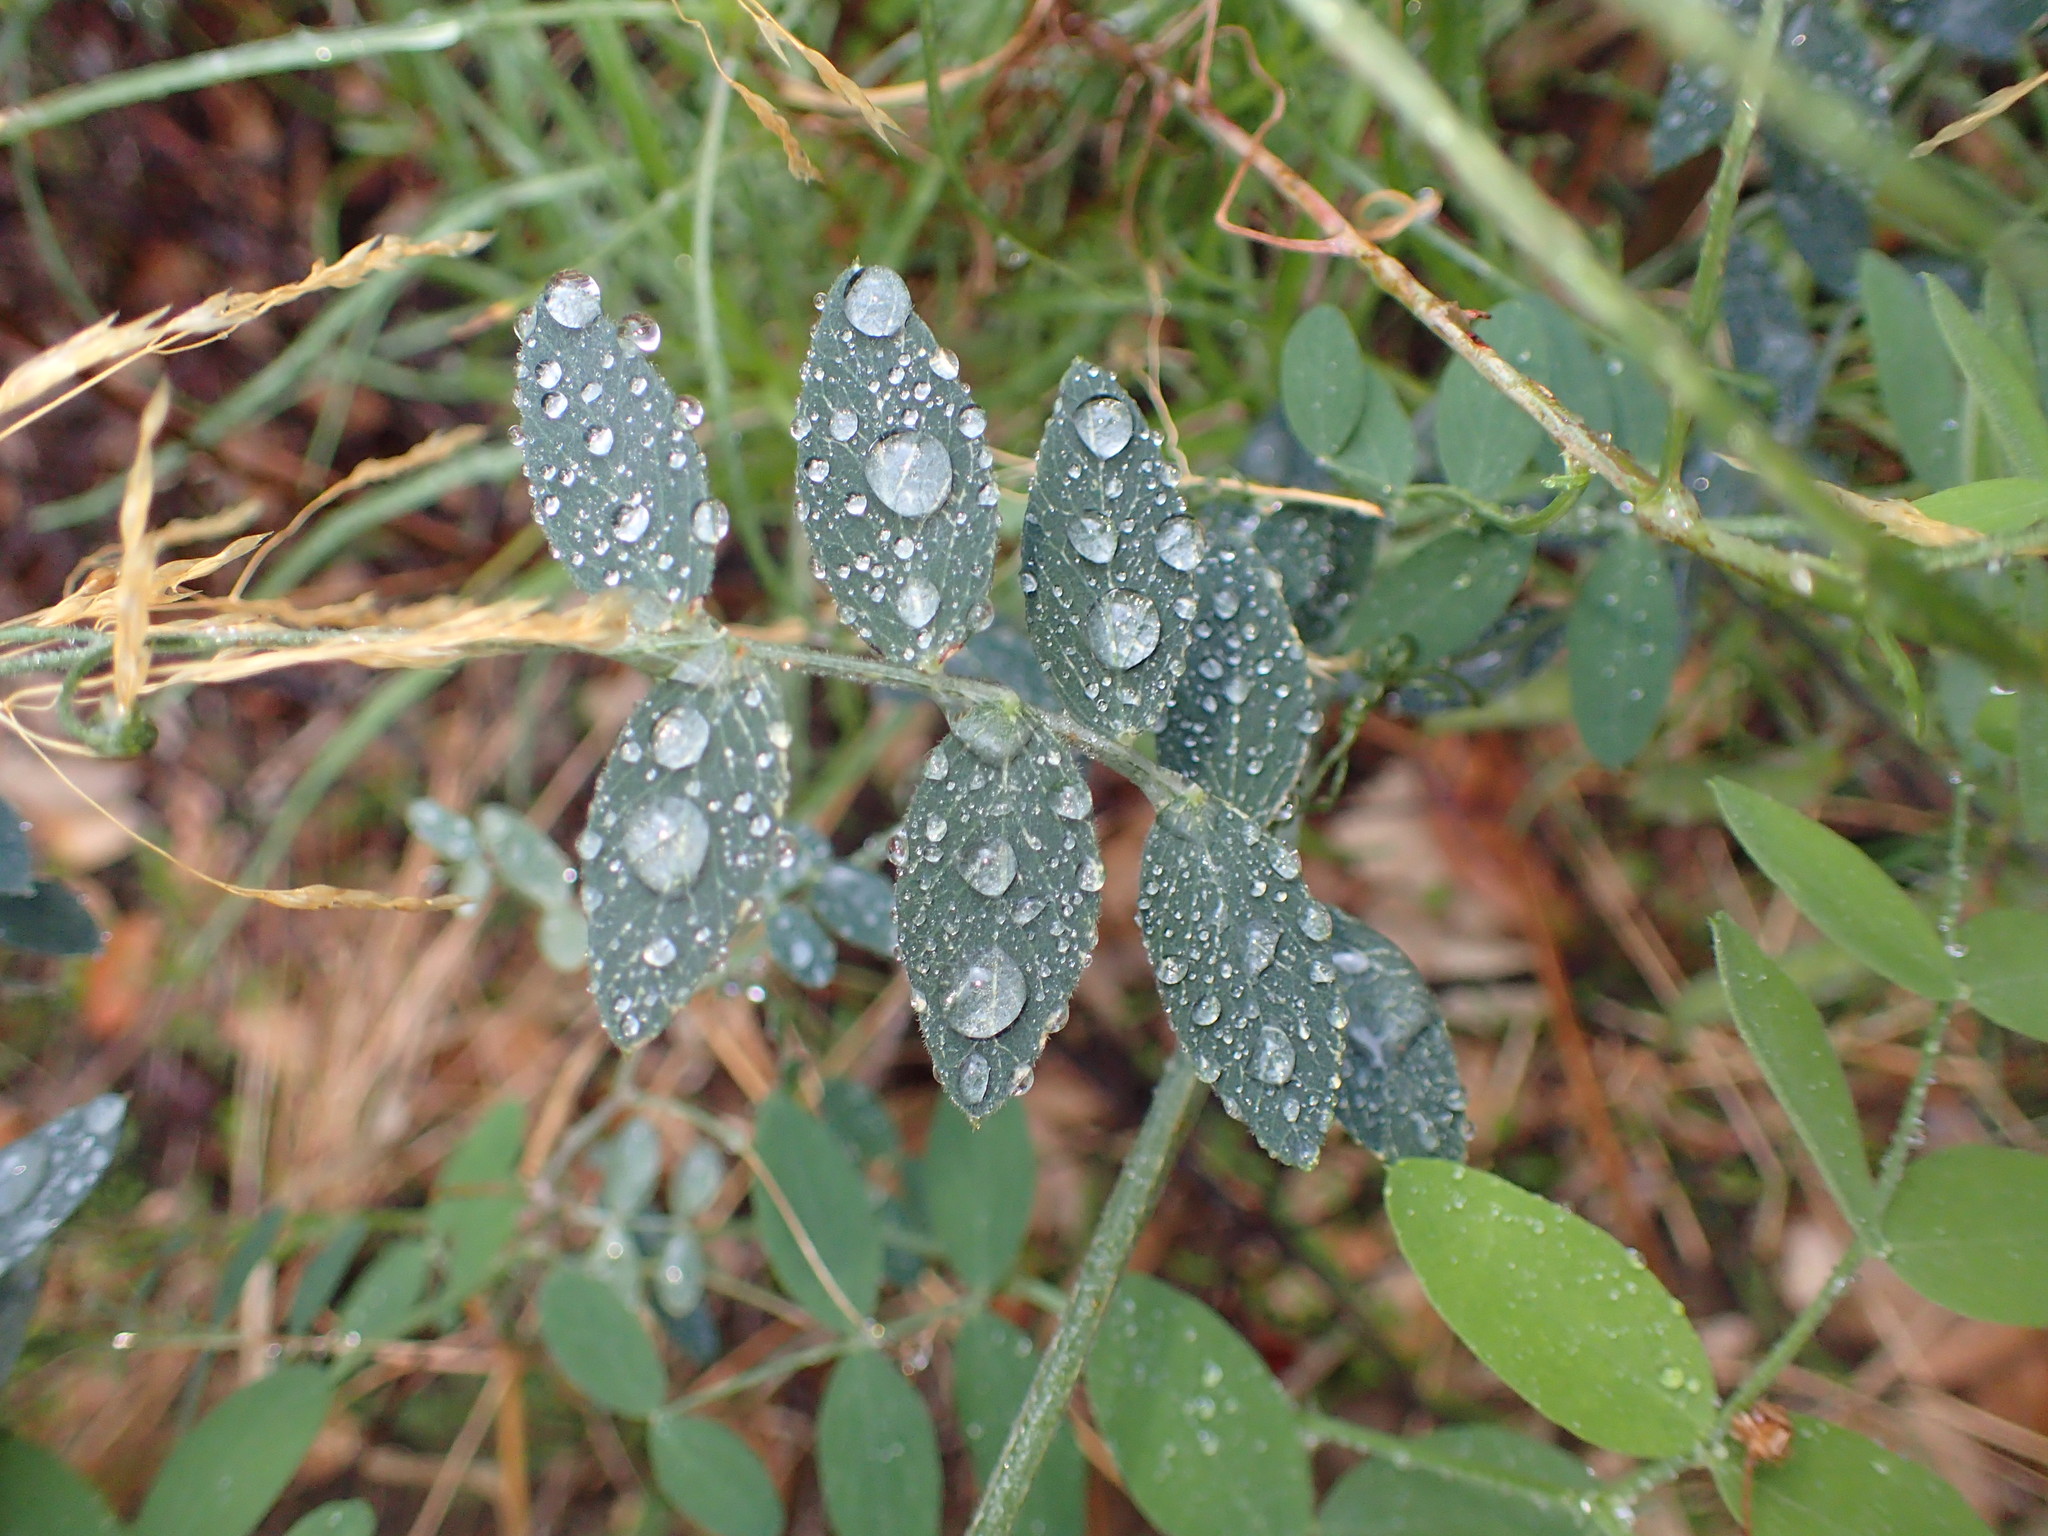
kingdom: Plantae
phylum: Tracheophyta
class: Magnoliopsida
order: Fabales
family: Fabaceae
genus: Lathyrus
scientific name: Lathyrus vestitus
